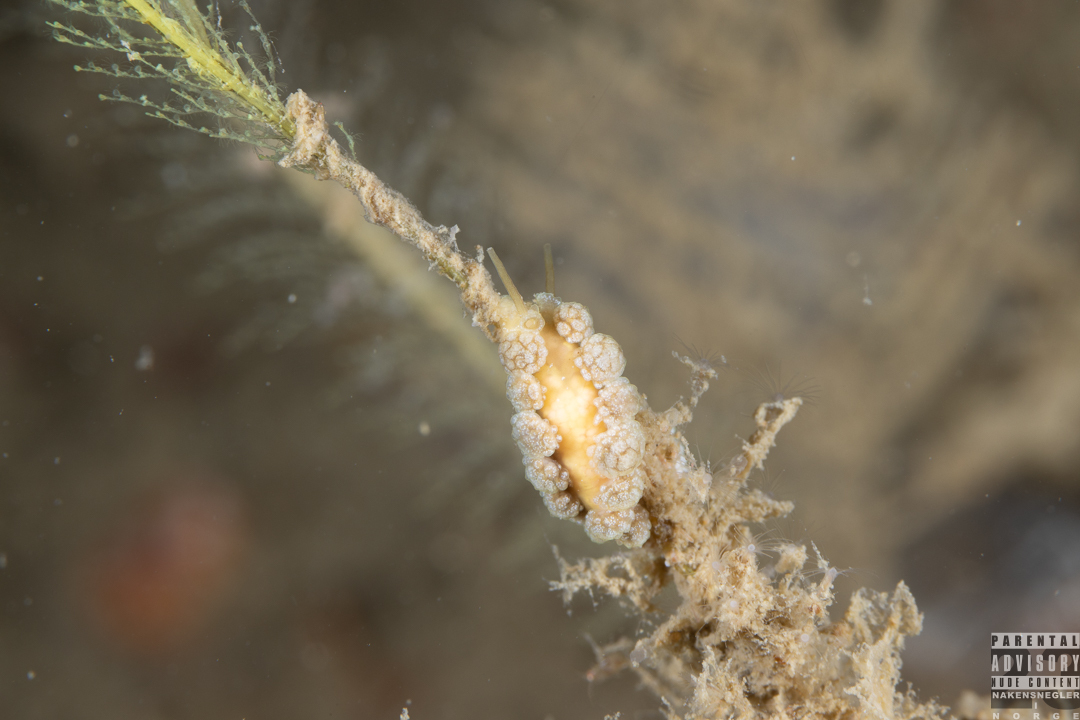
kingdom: Animalia
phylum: Mollusca
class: Gastropoda
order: Nudibranchia
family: Dotidae
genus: Doto
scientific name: Doto fragilis
